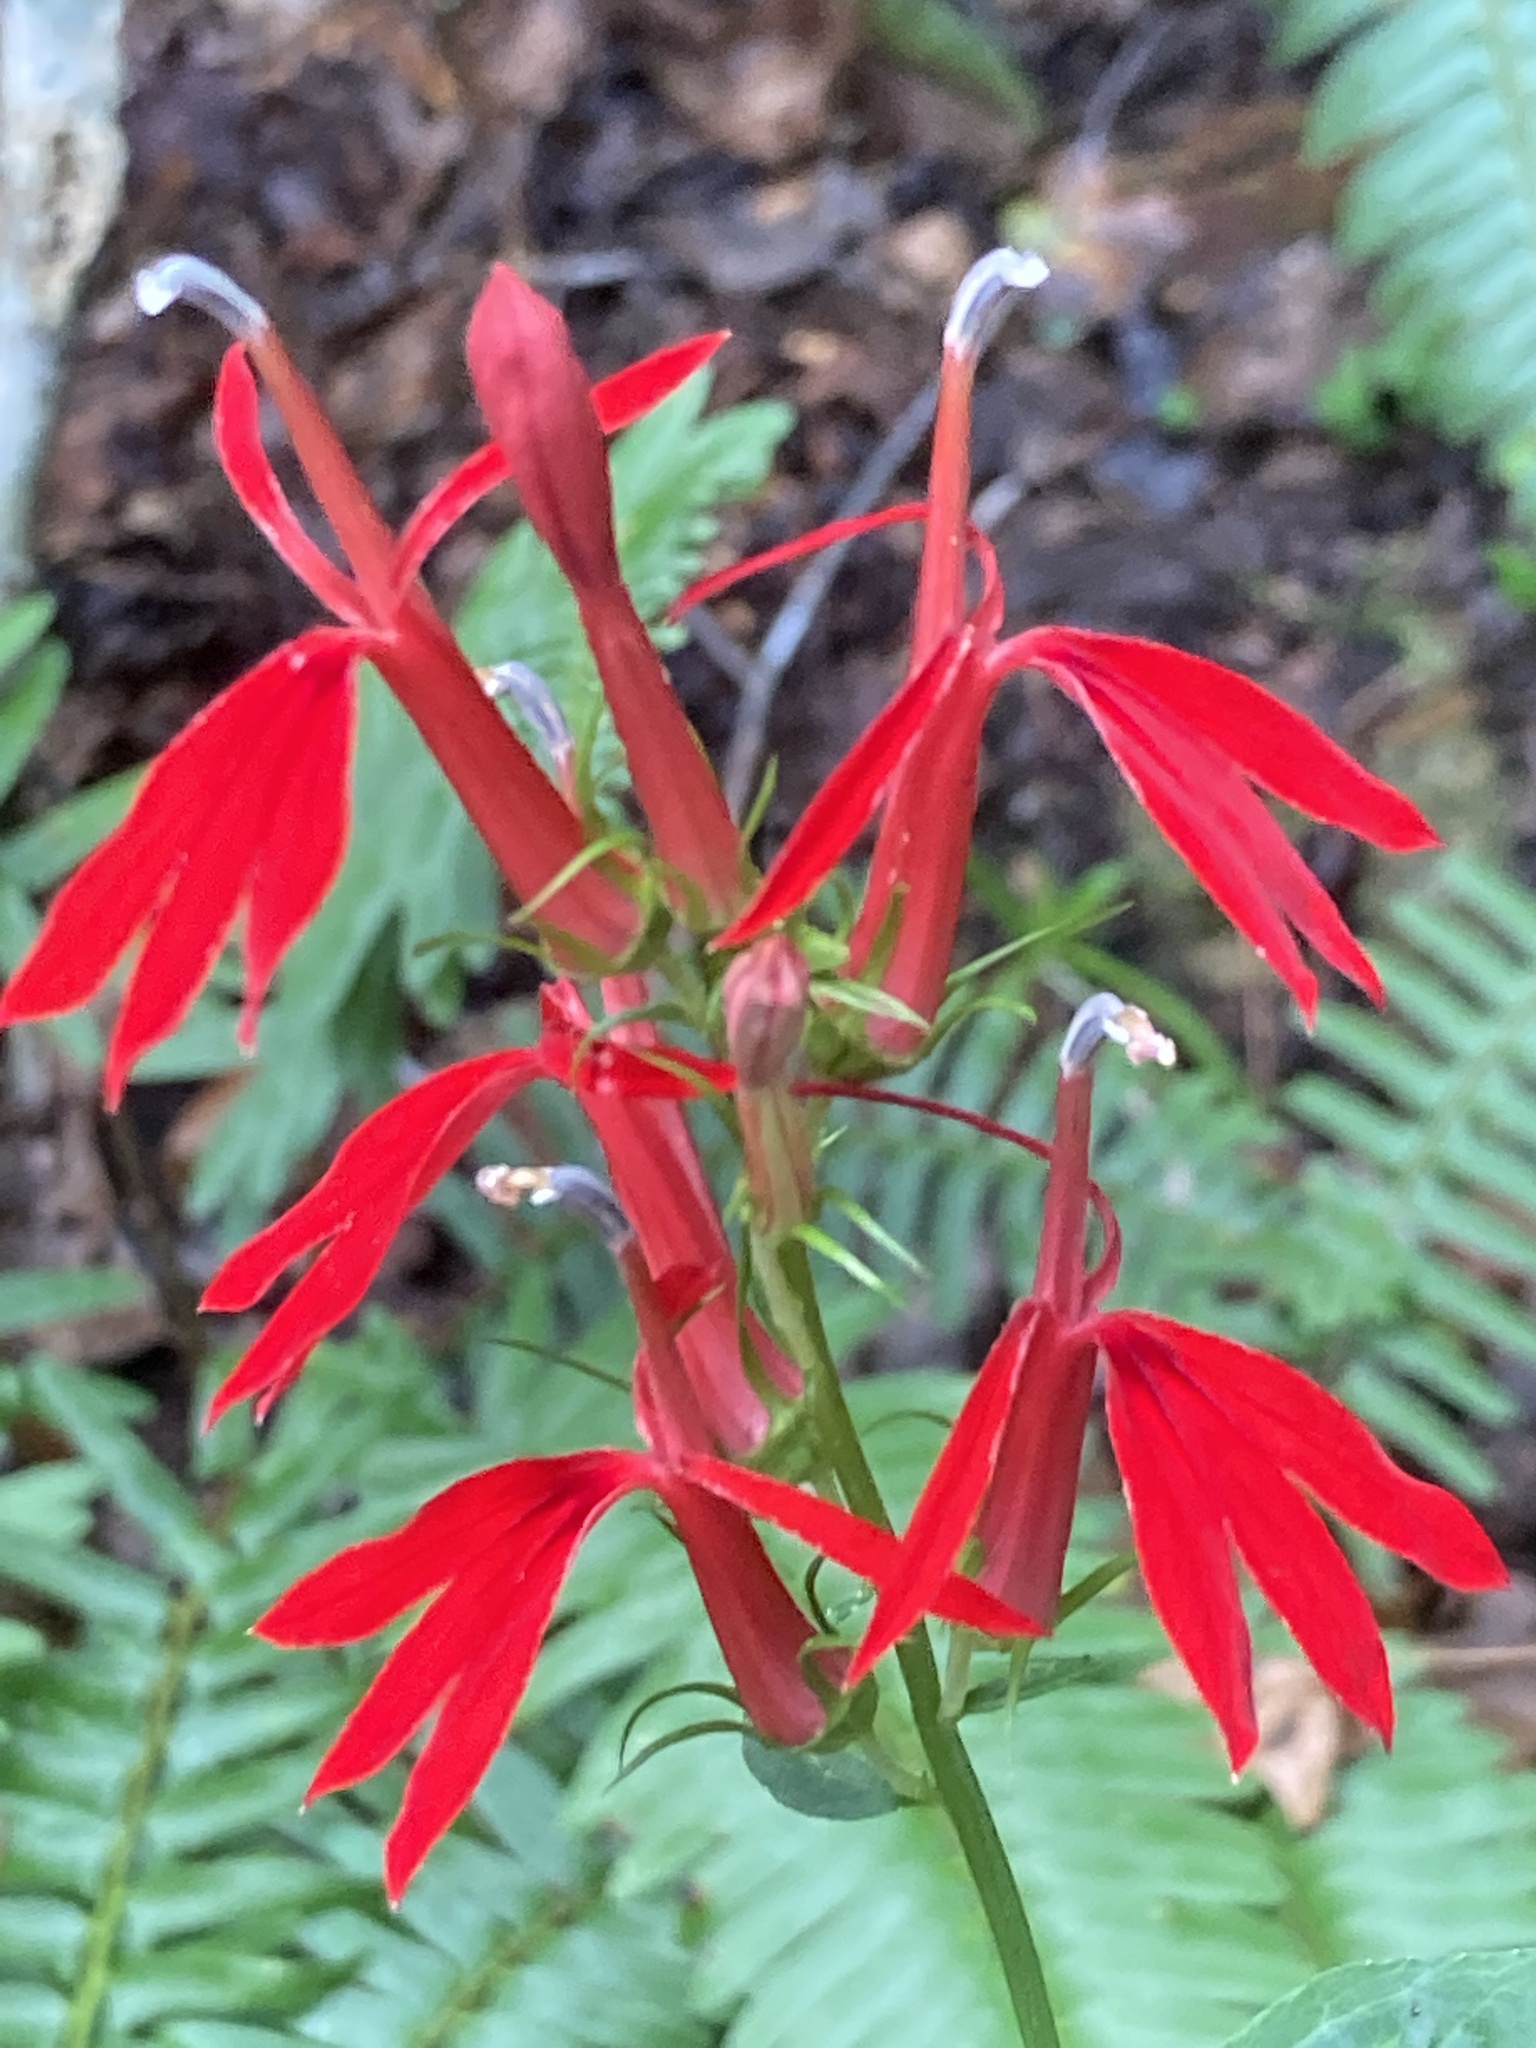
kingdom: Plantae
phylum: Tracheophyta
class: Magnoliopsida
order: Asterales
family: Campanulaceae
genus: Lobelia
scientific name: Lobelia cardinalis
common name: Cardinal flower
